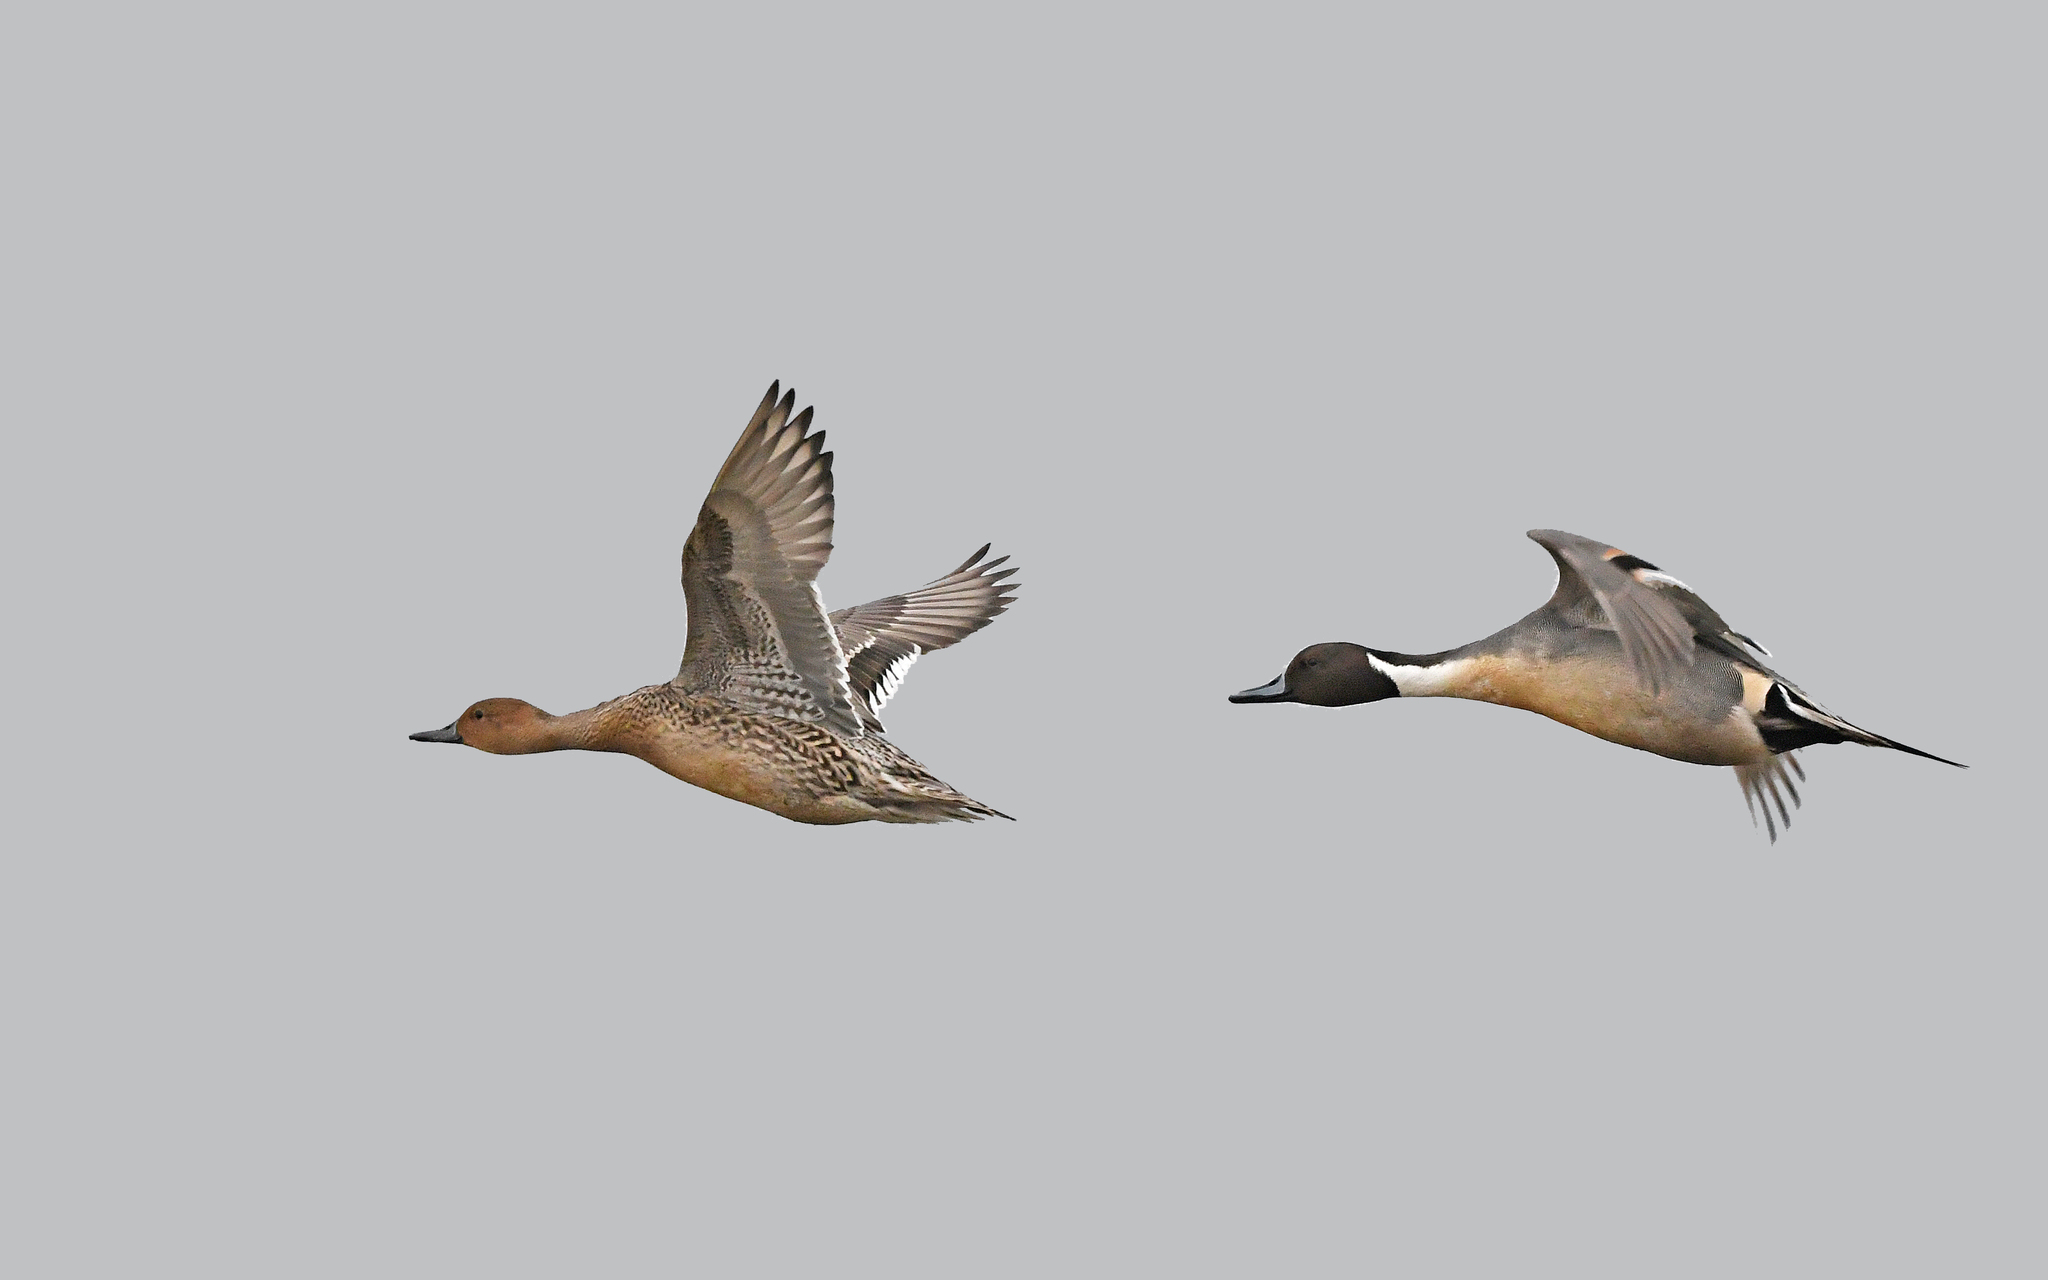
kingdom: Animalia
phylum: Chordata
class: Aves
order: Anseriformes
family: Anatidae
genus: Anas
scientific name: Anas acuta
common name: Northern pintail
